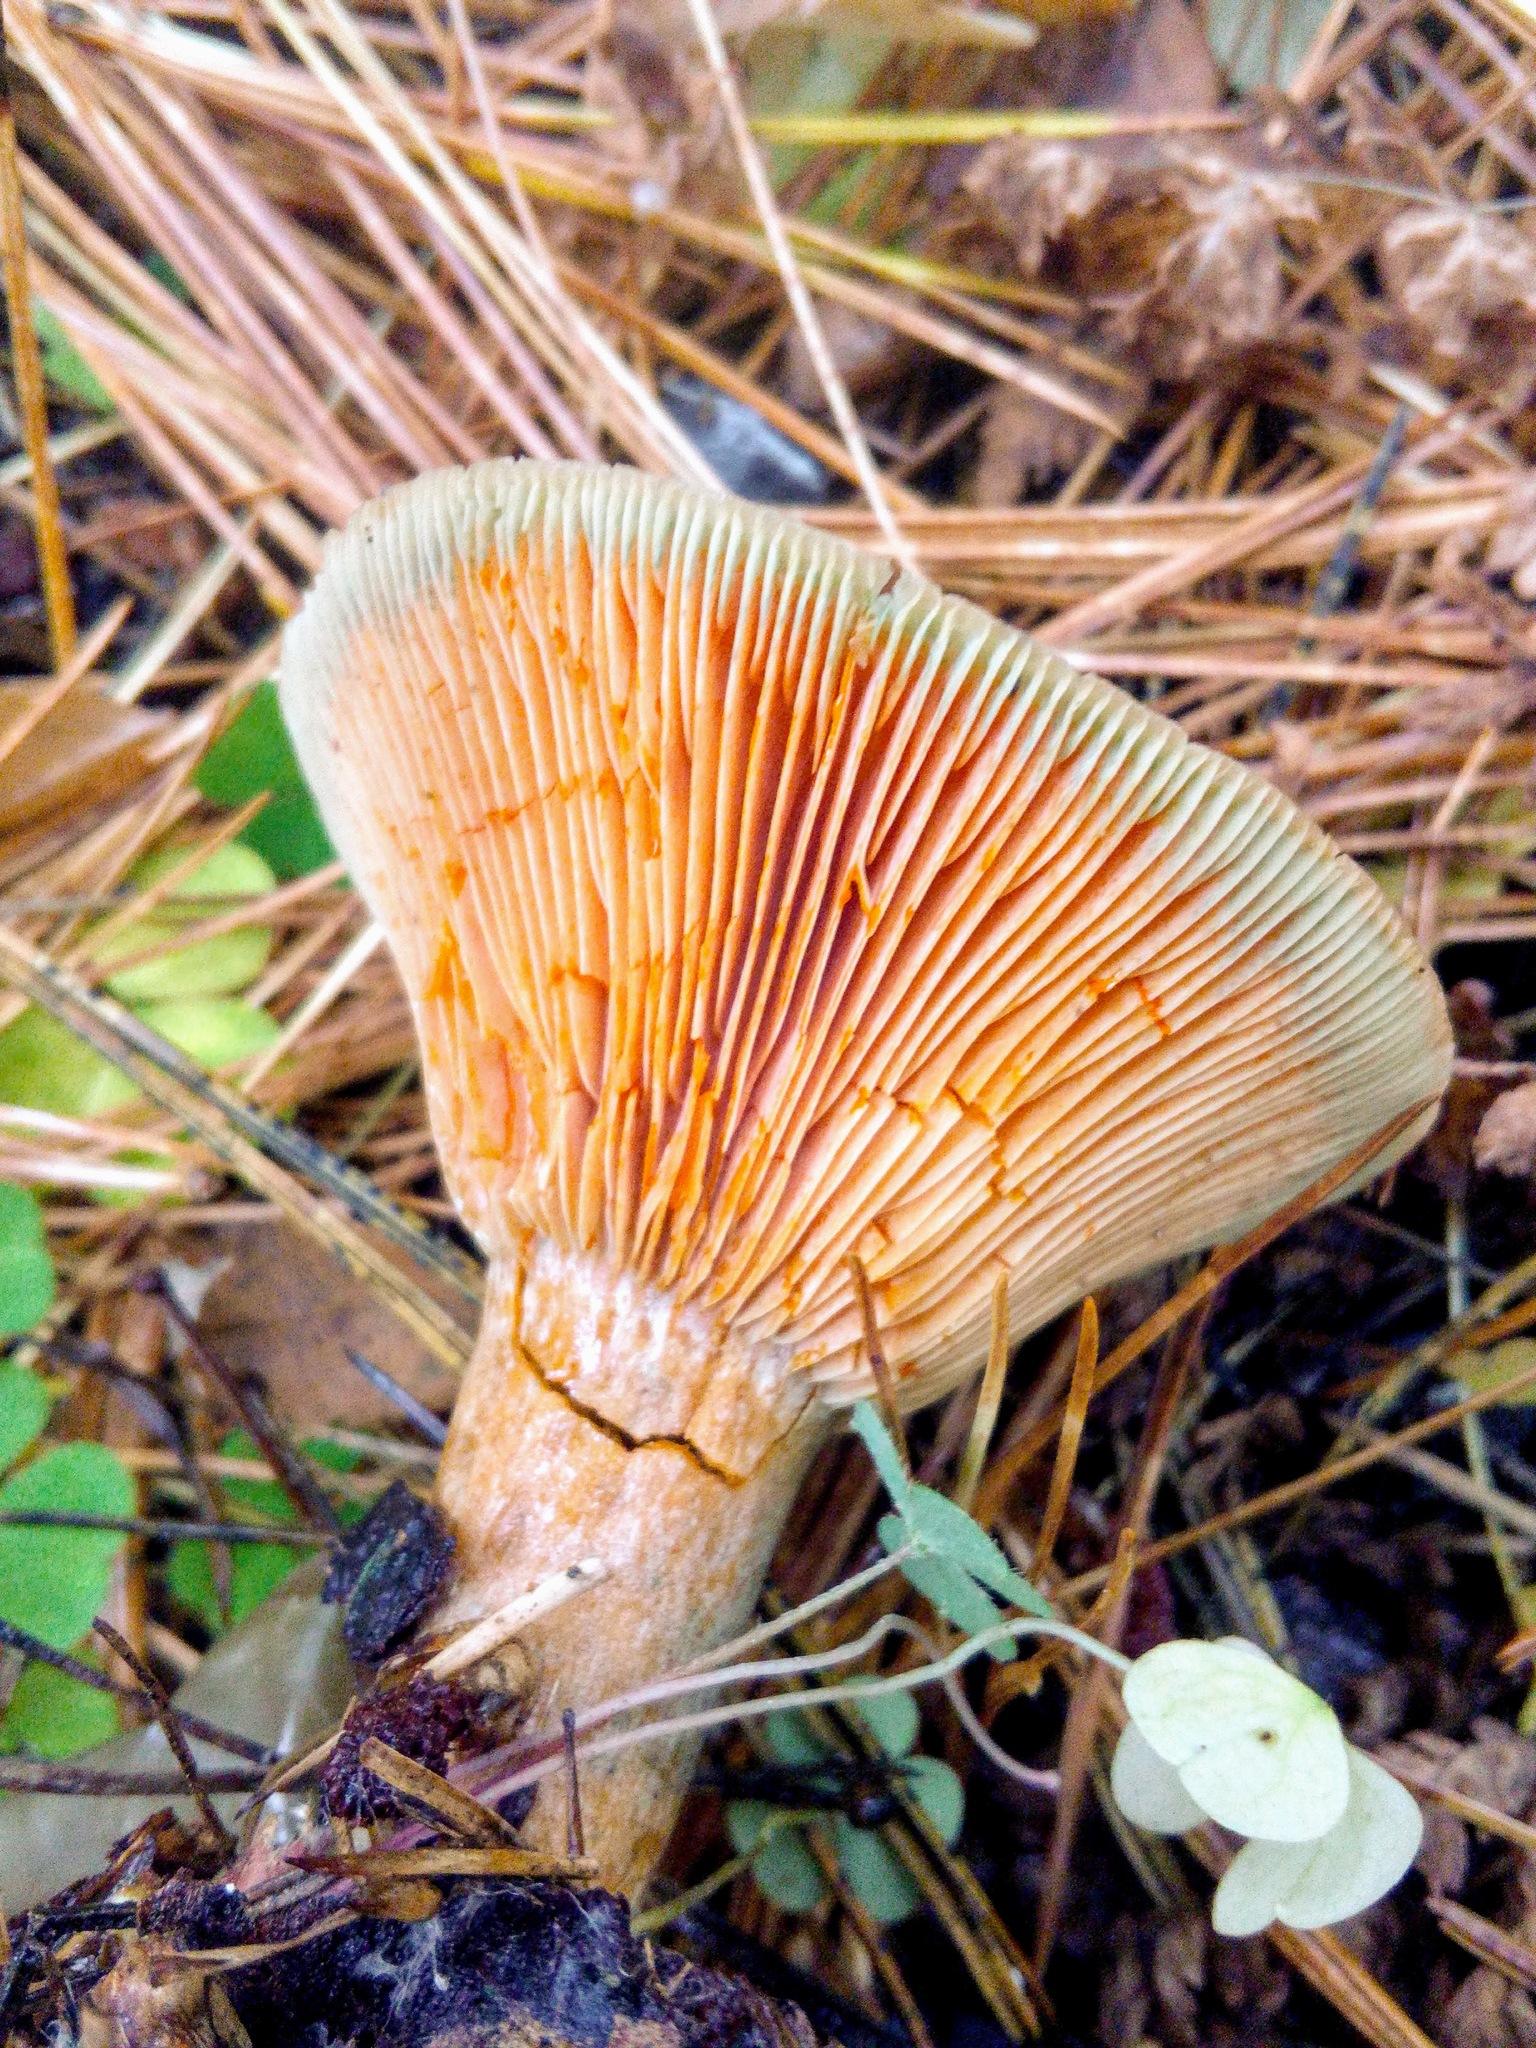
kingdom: Fungi
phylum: Basidiomycota
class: Agaricomycetes
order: Russulales
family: Russulaceae
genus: Lactarius
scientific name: Lactarius deliciosus
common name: Saffron milk-cap
